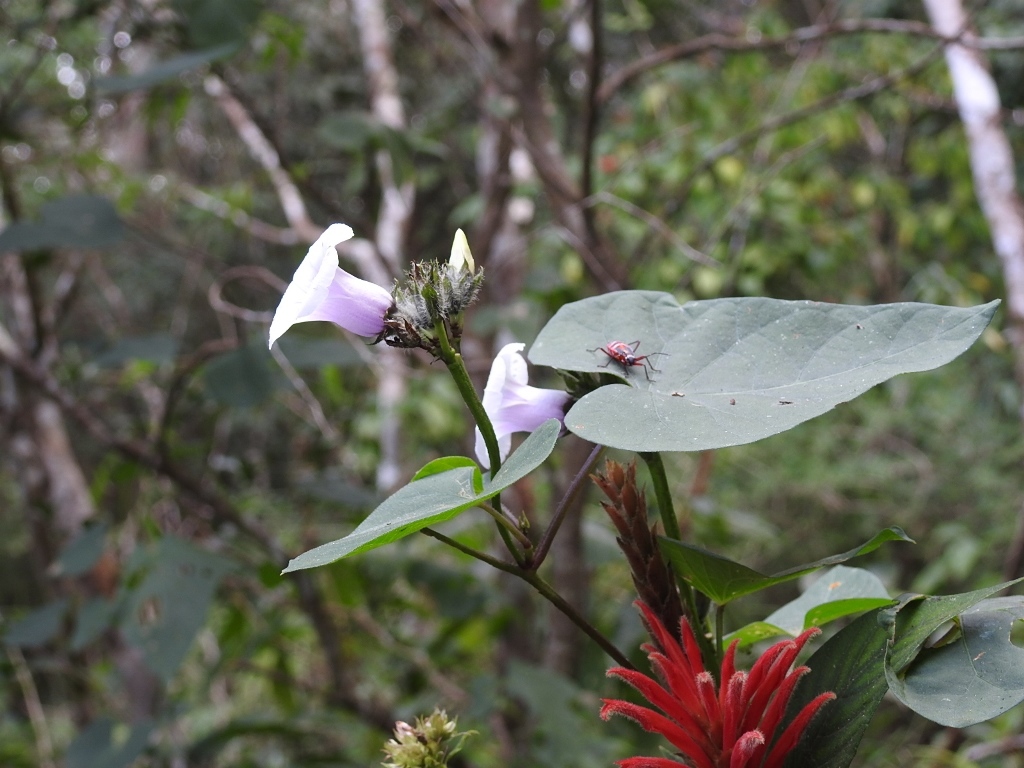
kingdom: Plantae
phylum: Tracheophyta
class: Magnoliopsida
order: Solanales
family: Convolvulaceae
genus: Ipomoea
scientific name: Ipomoea batatas
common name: Sweet-potato
